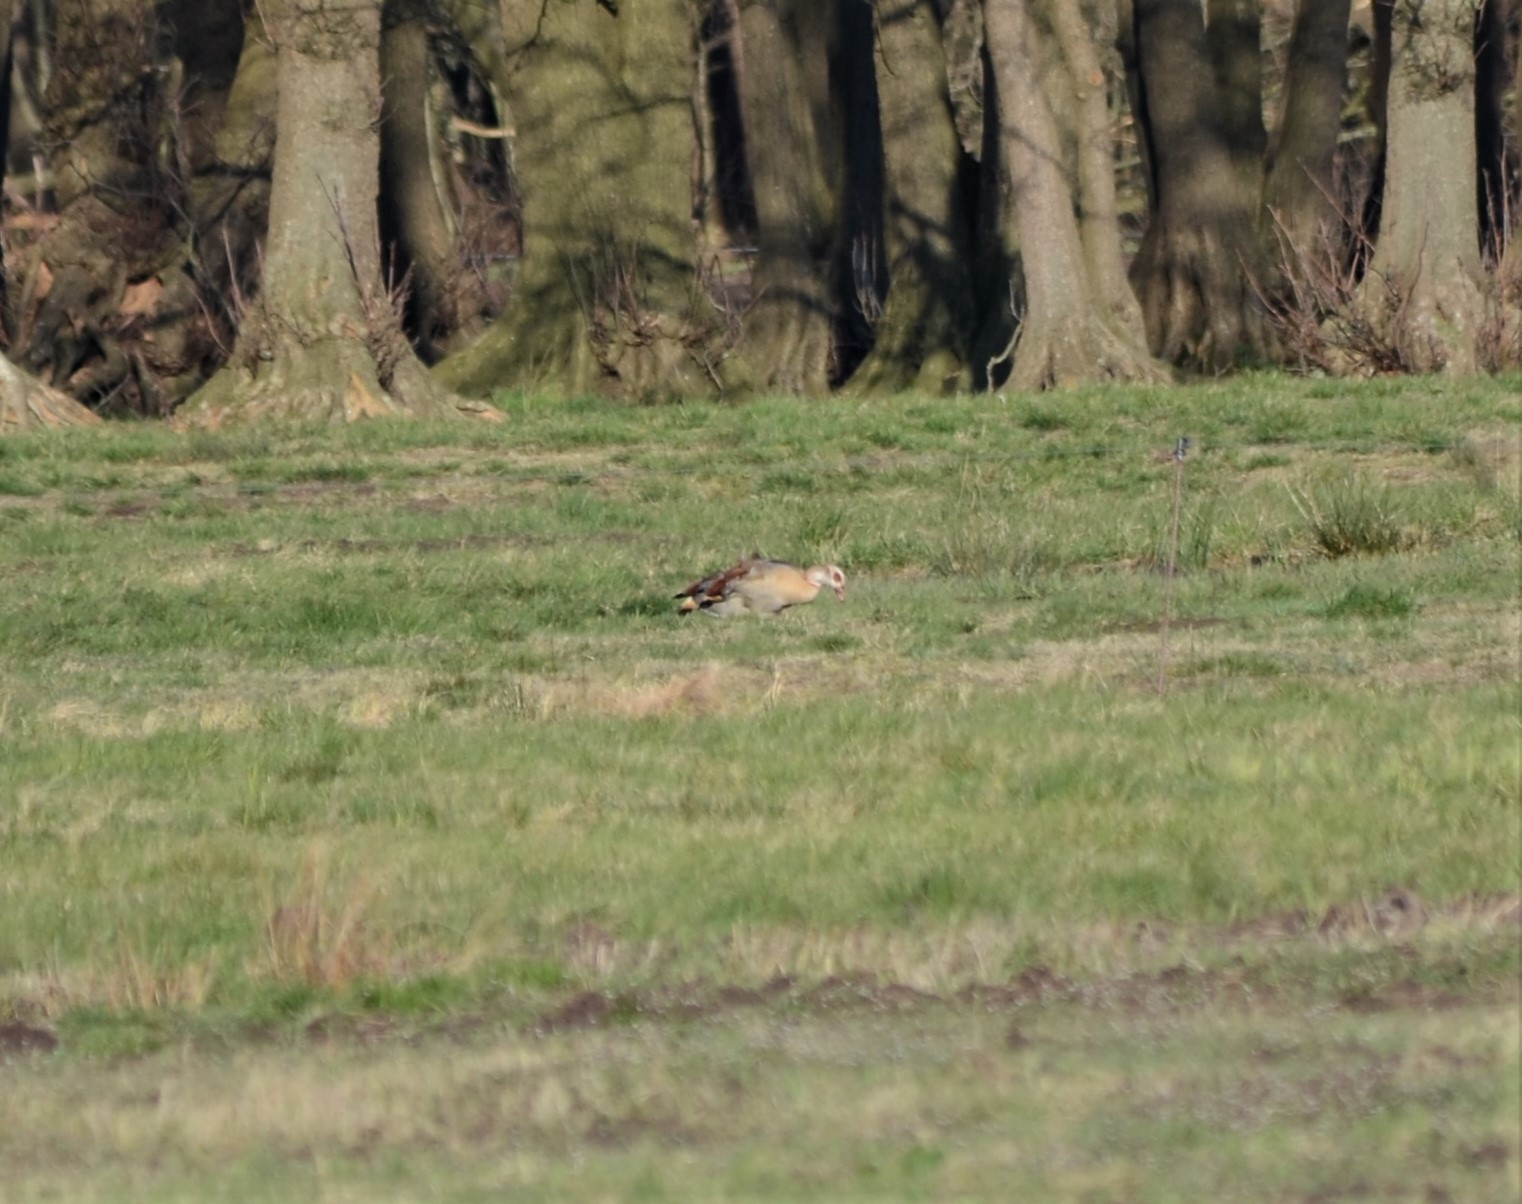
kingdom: Animalia
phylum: Chordata
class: Aves
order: Anseriformes
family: Anatidae
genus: Alopochen
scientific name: Alopochen aegyptiaca
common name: Egyptian goose
